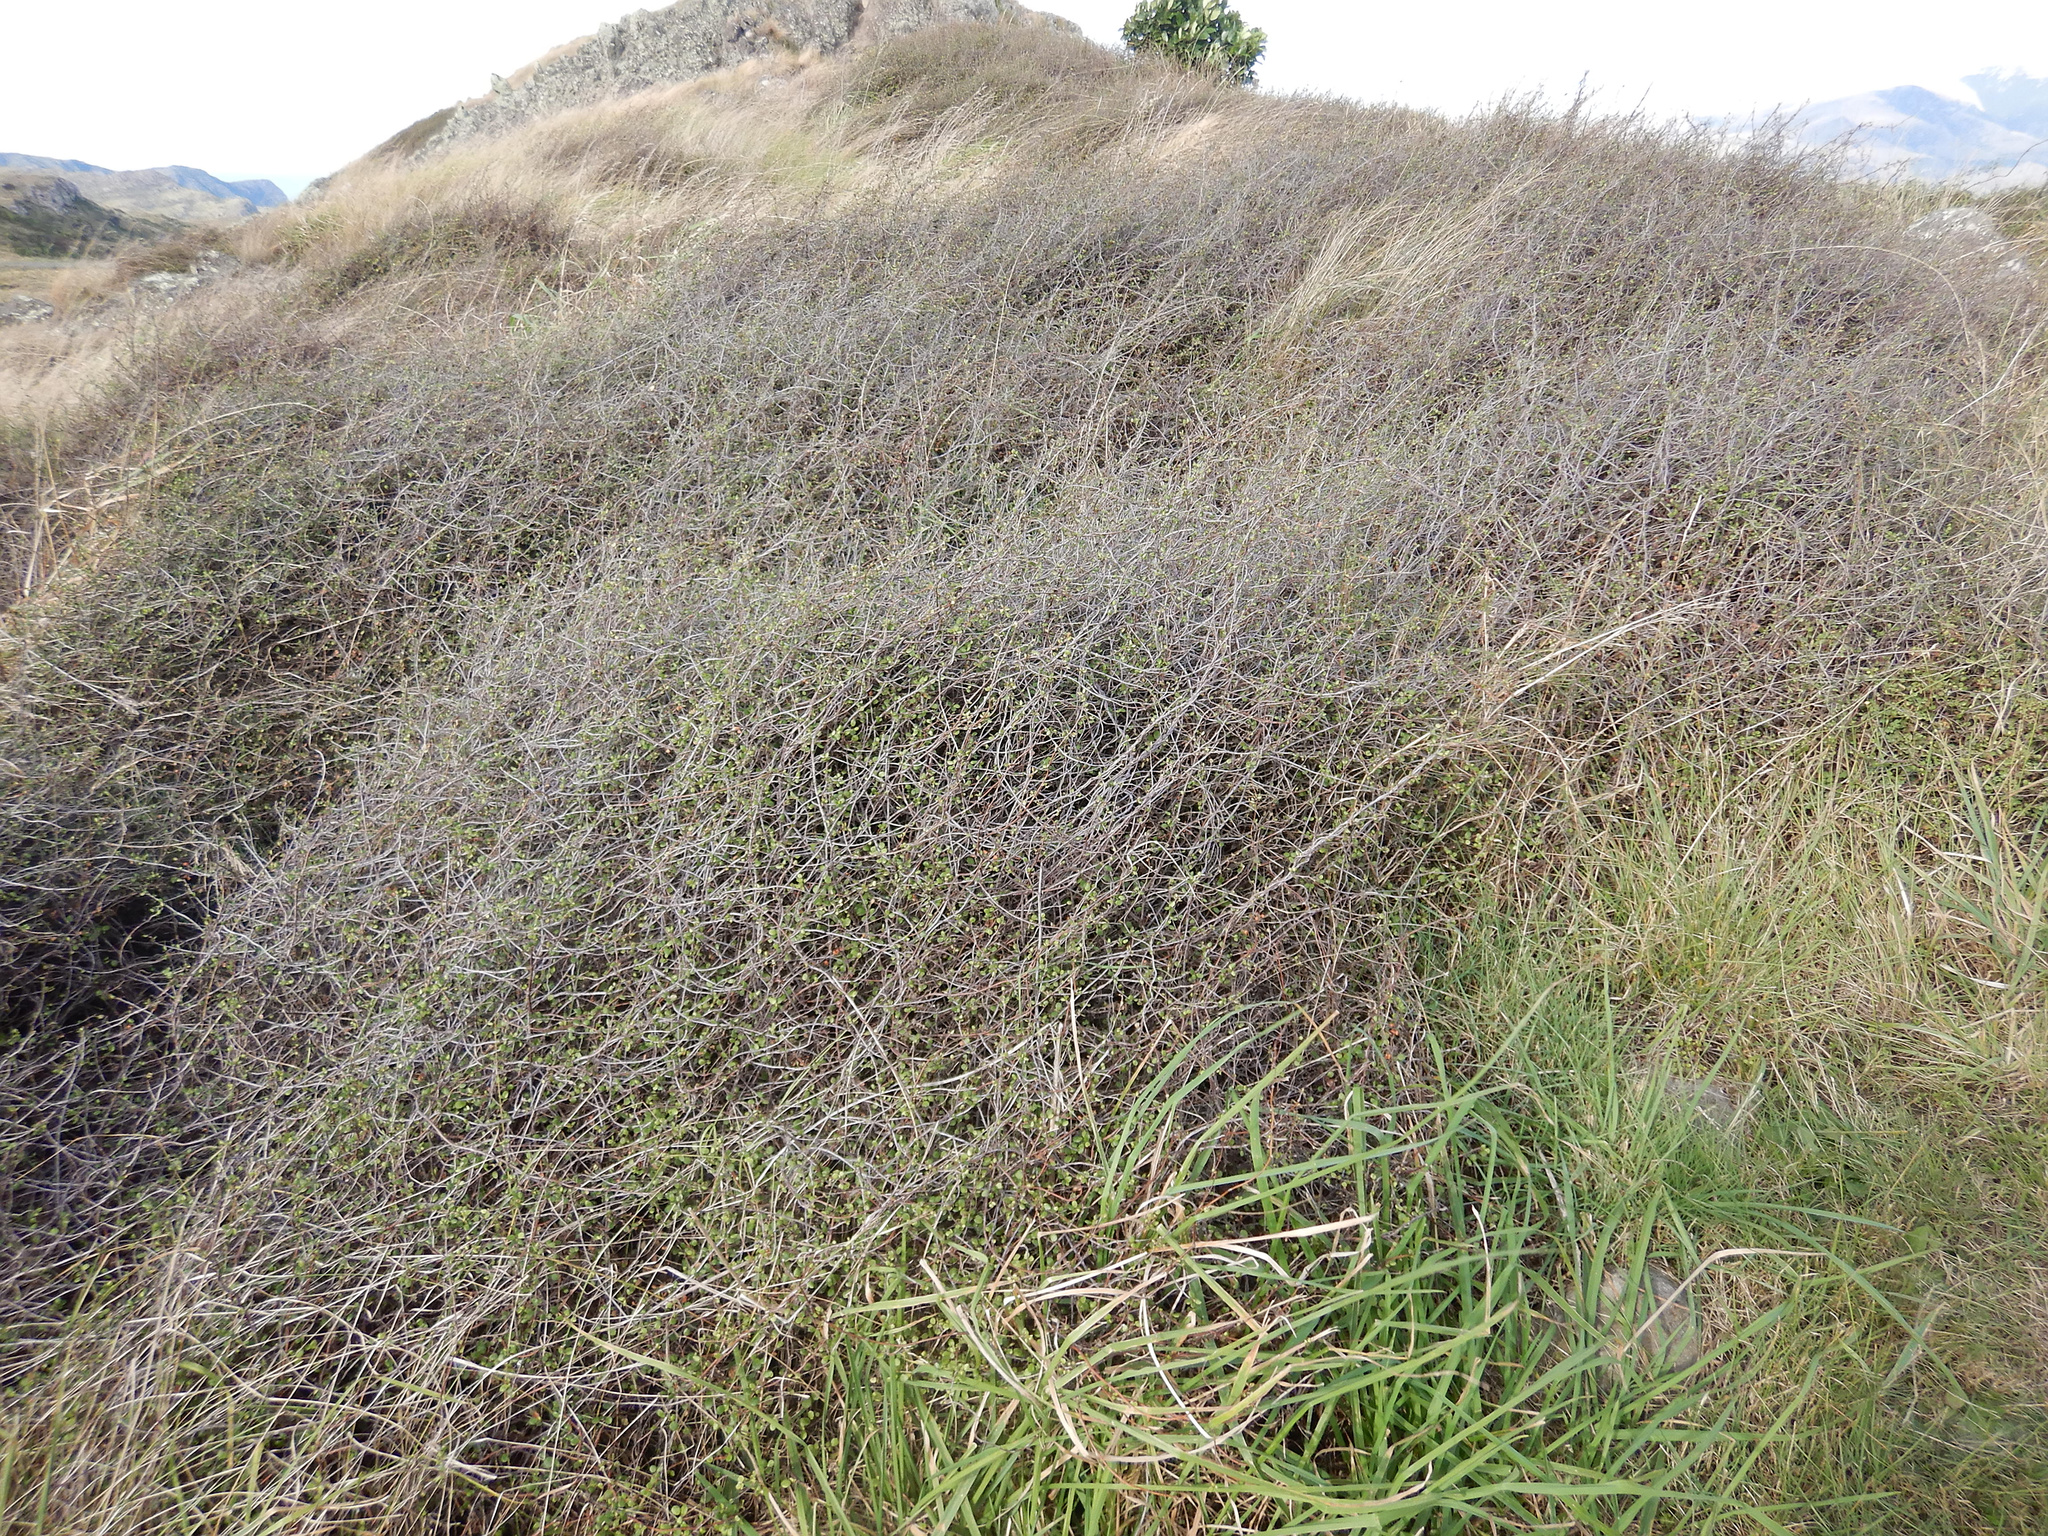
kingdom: Plantae
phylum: Tracheophyta
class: Magnoliopsida
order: Caryophyllales
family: Polygonaceae
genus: Muehlenbeckia
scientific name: Muehlenbeckia complexa
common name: Wireplant
